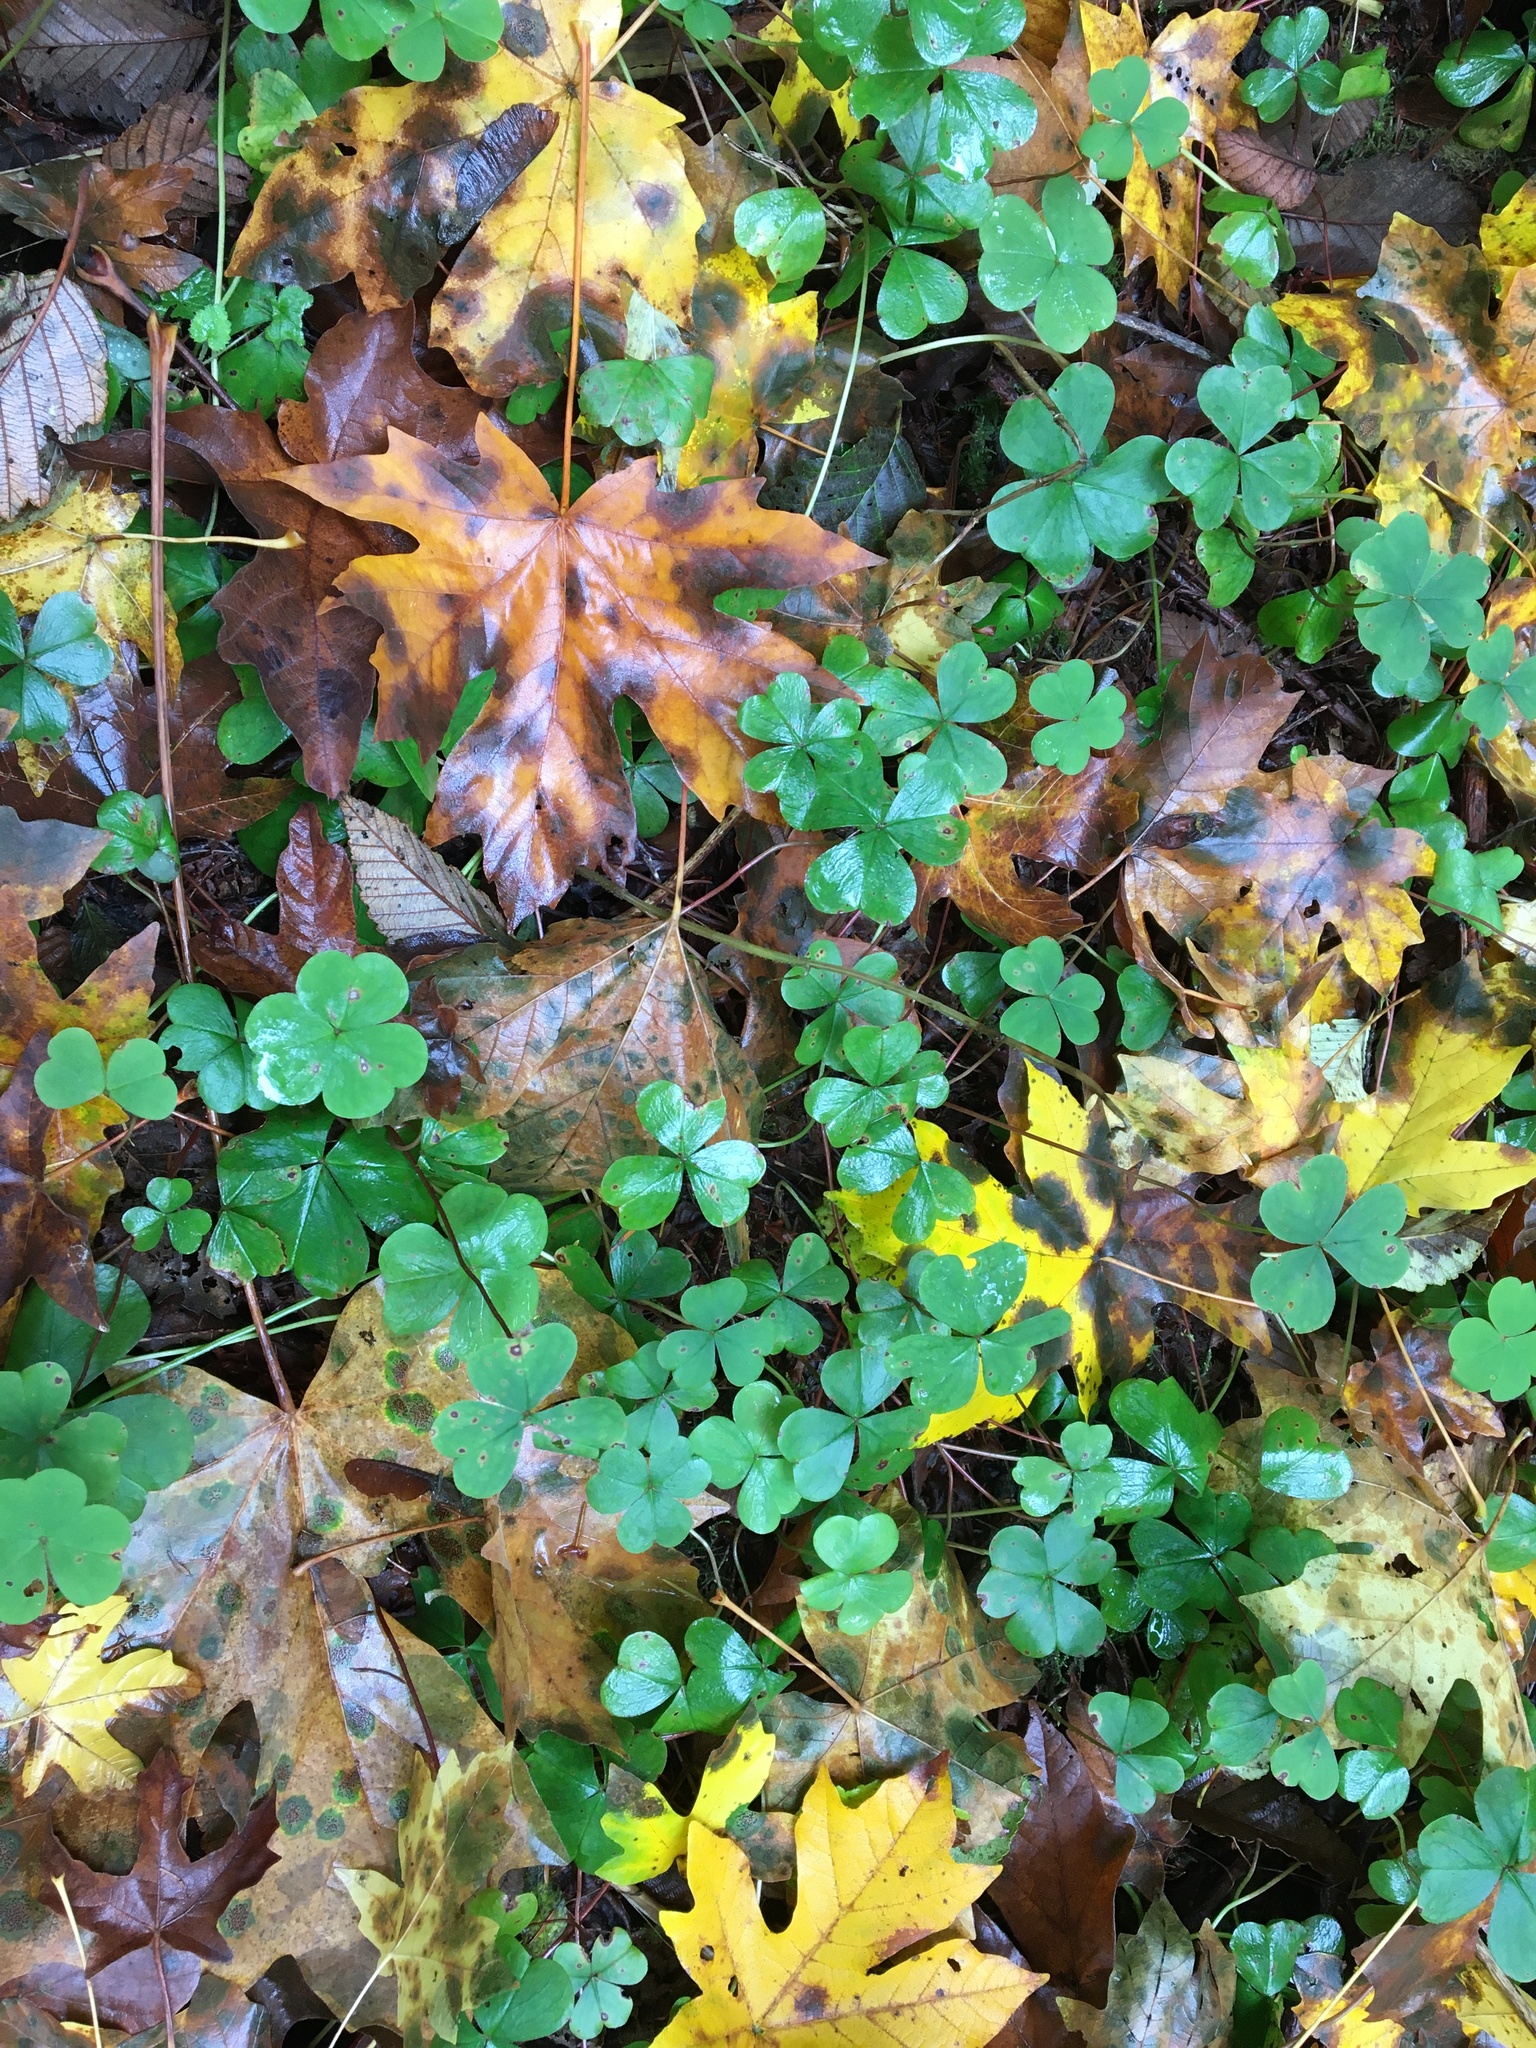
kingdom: Plantae
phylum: Tracheophyta
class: Magnoliopsida
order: Oxalidales
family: Oxalidaceae
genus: Oxalis
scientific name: Oxalis oregana
